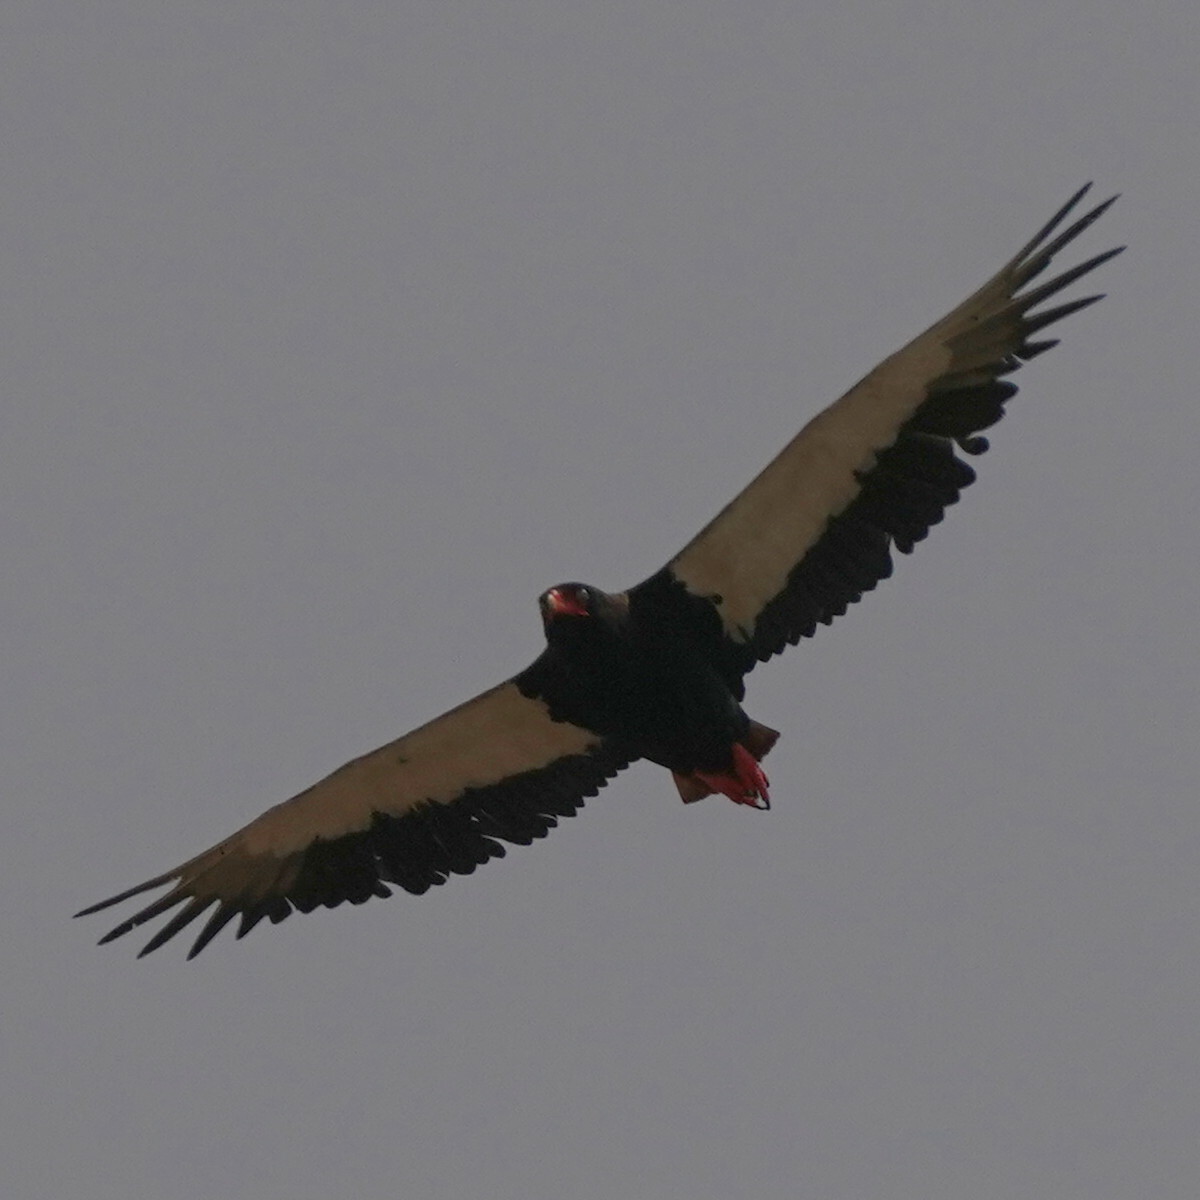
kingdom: Animalia
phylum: Chordata
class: Aves
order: Accipitriformes
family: Accipitridae
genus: Terathopius
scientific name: Terathopius ecaudatus
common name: Bateleur
